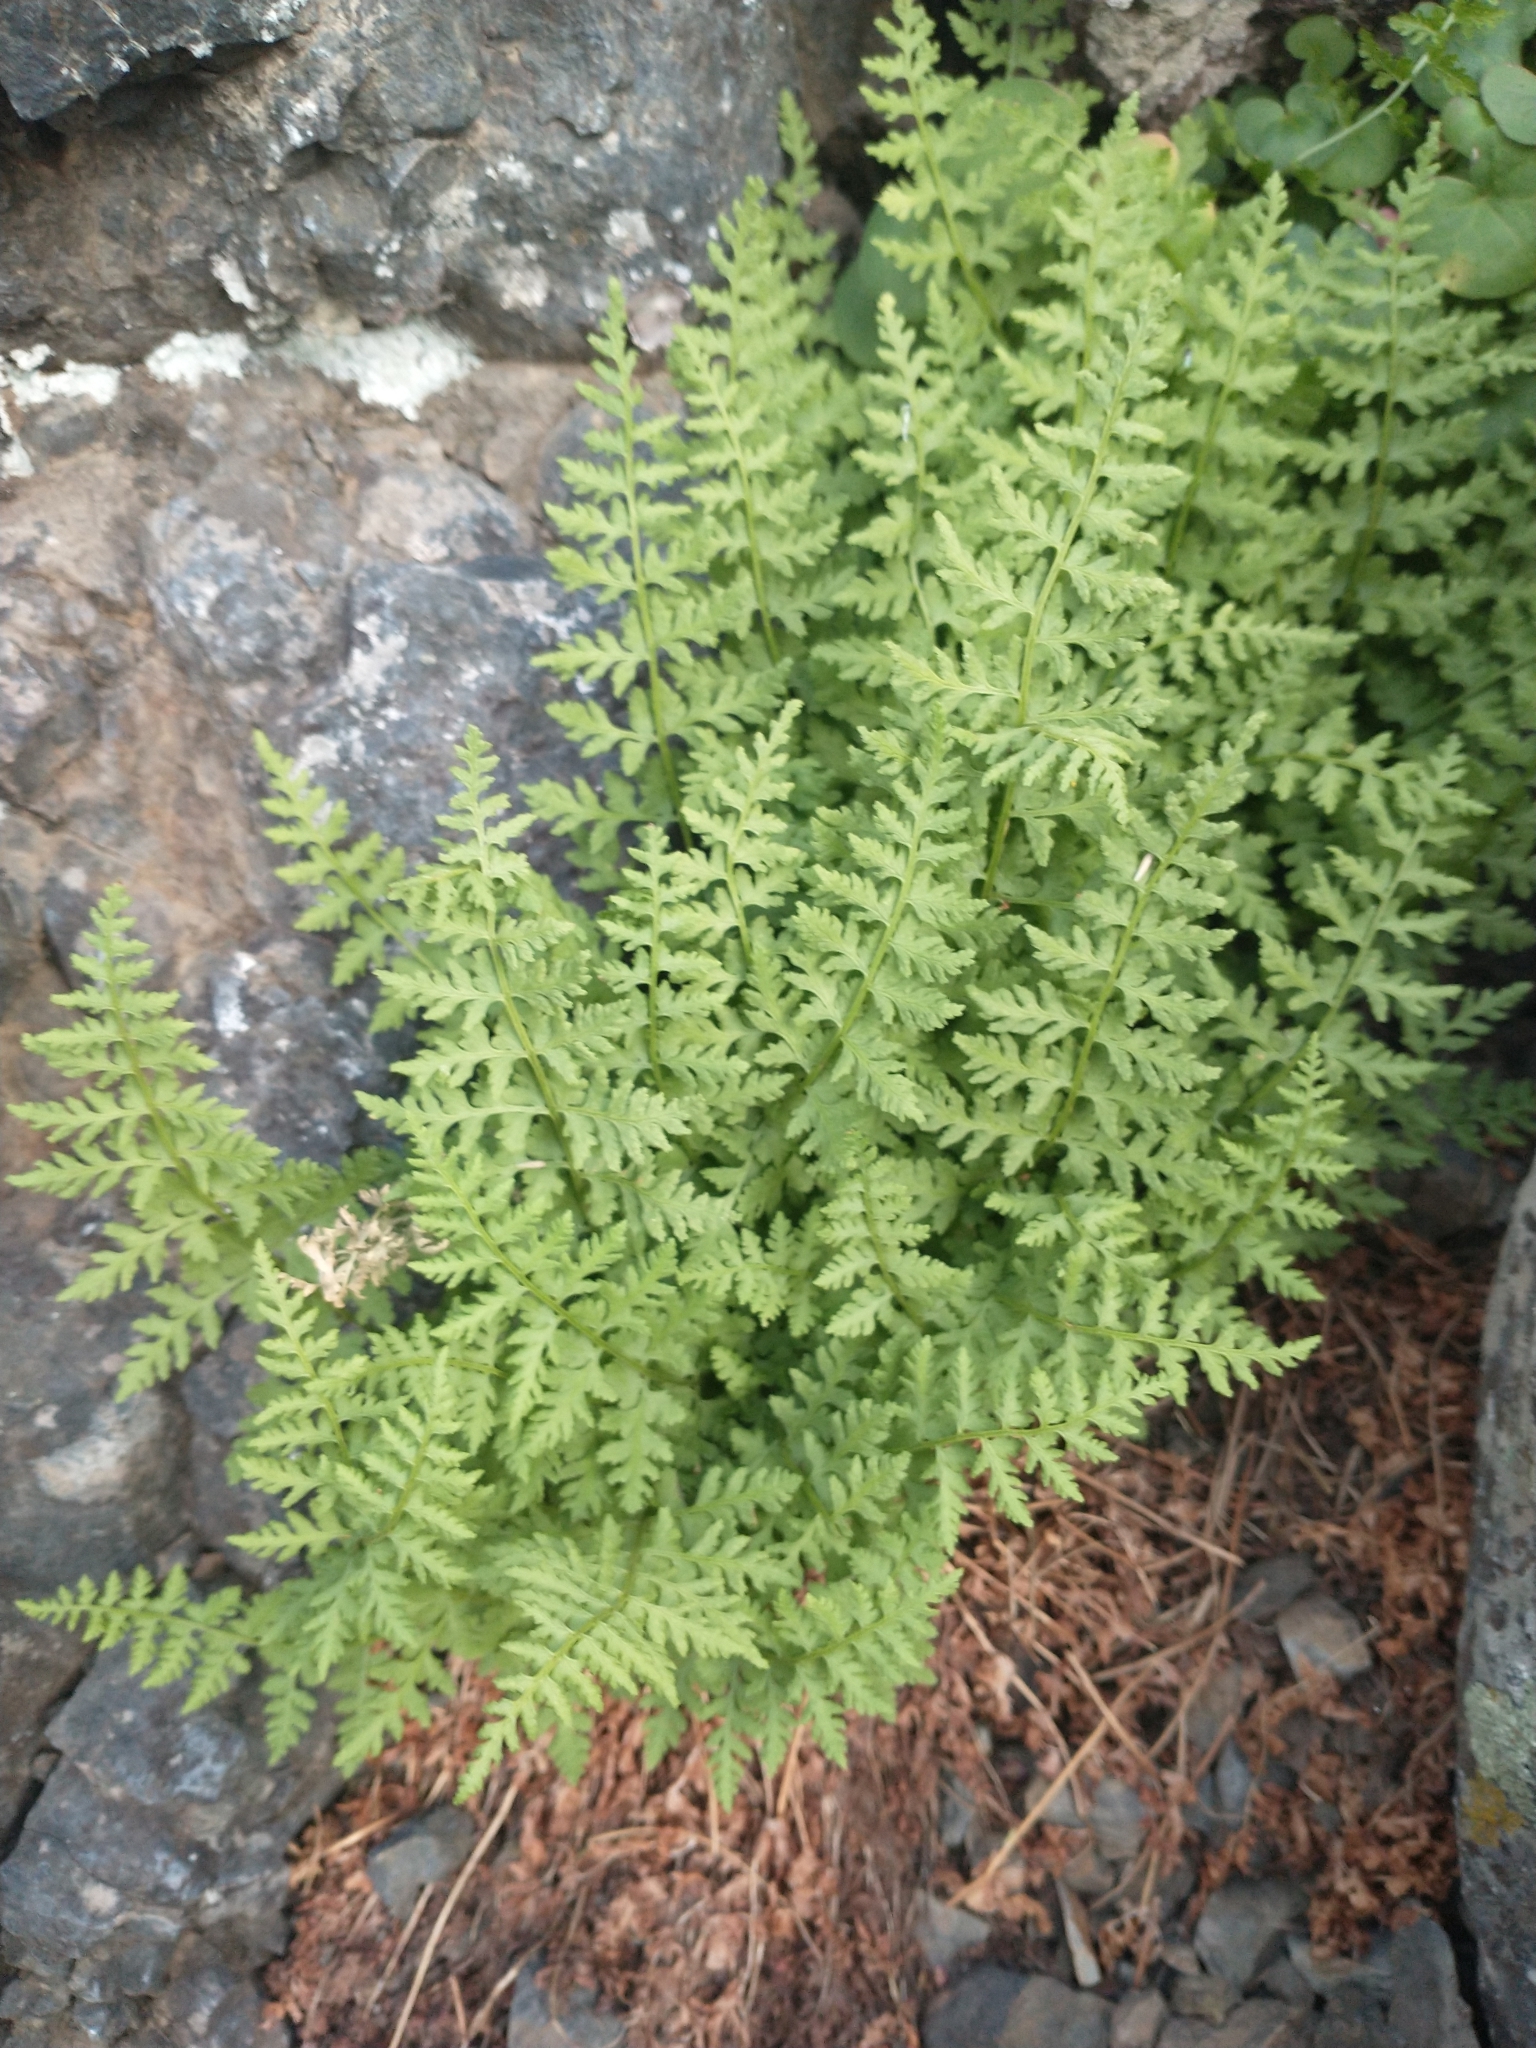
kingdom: Plantae
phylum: Tracheophyta
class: Polypodiopsida
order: Polypodiales
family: Cystopteridaceae
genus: Cystopteris
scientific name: Cystopteris fragilis
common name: Brittle bladder fern
